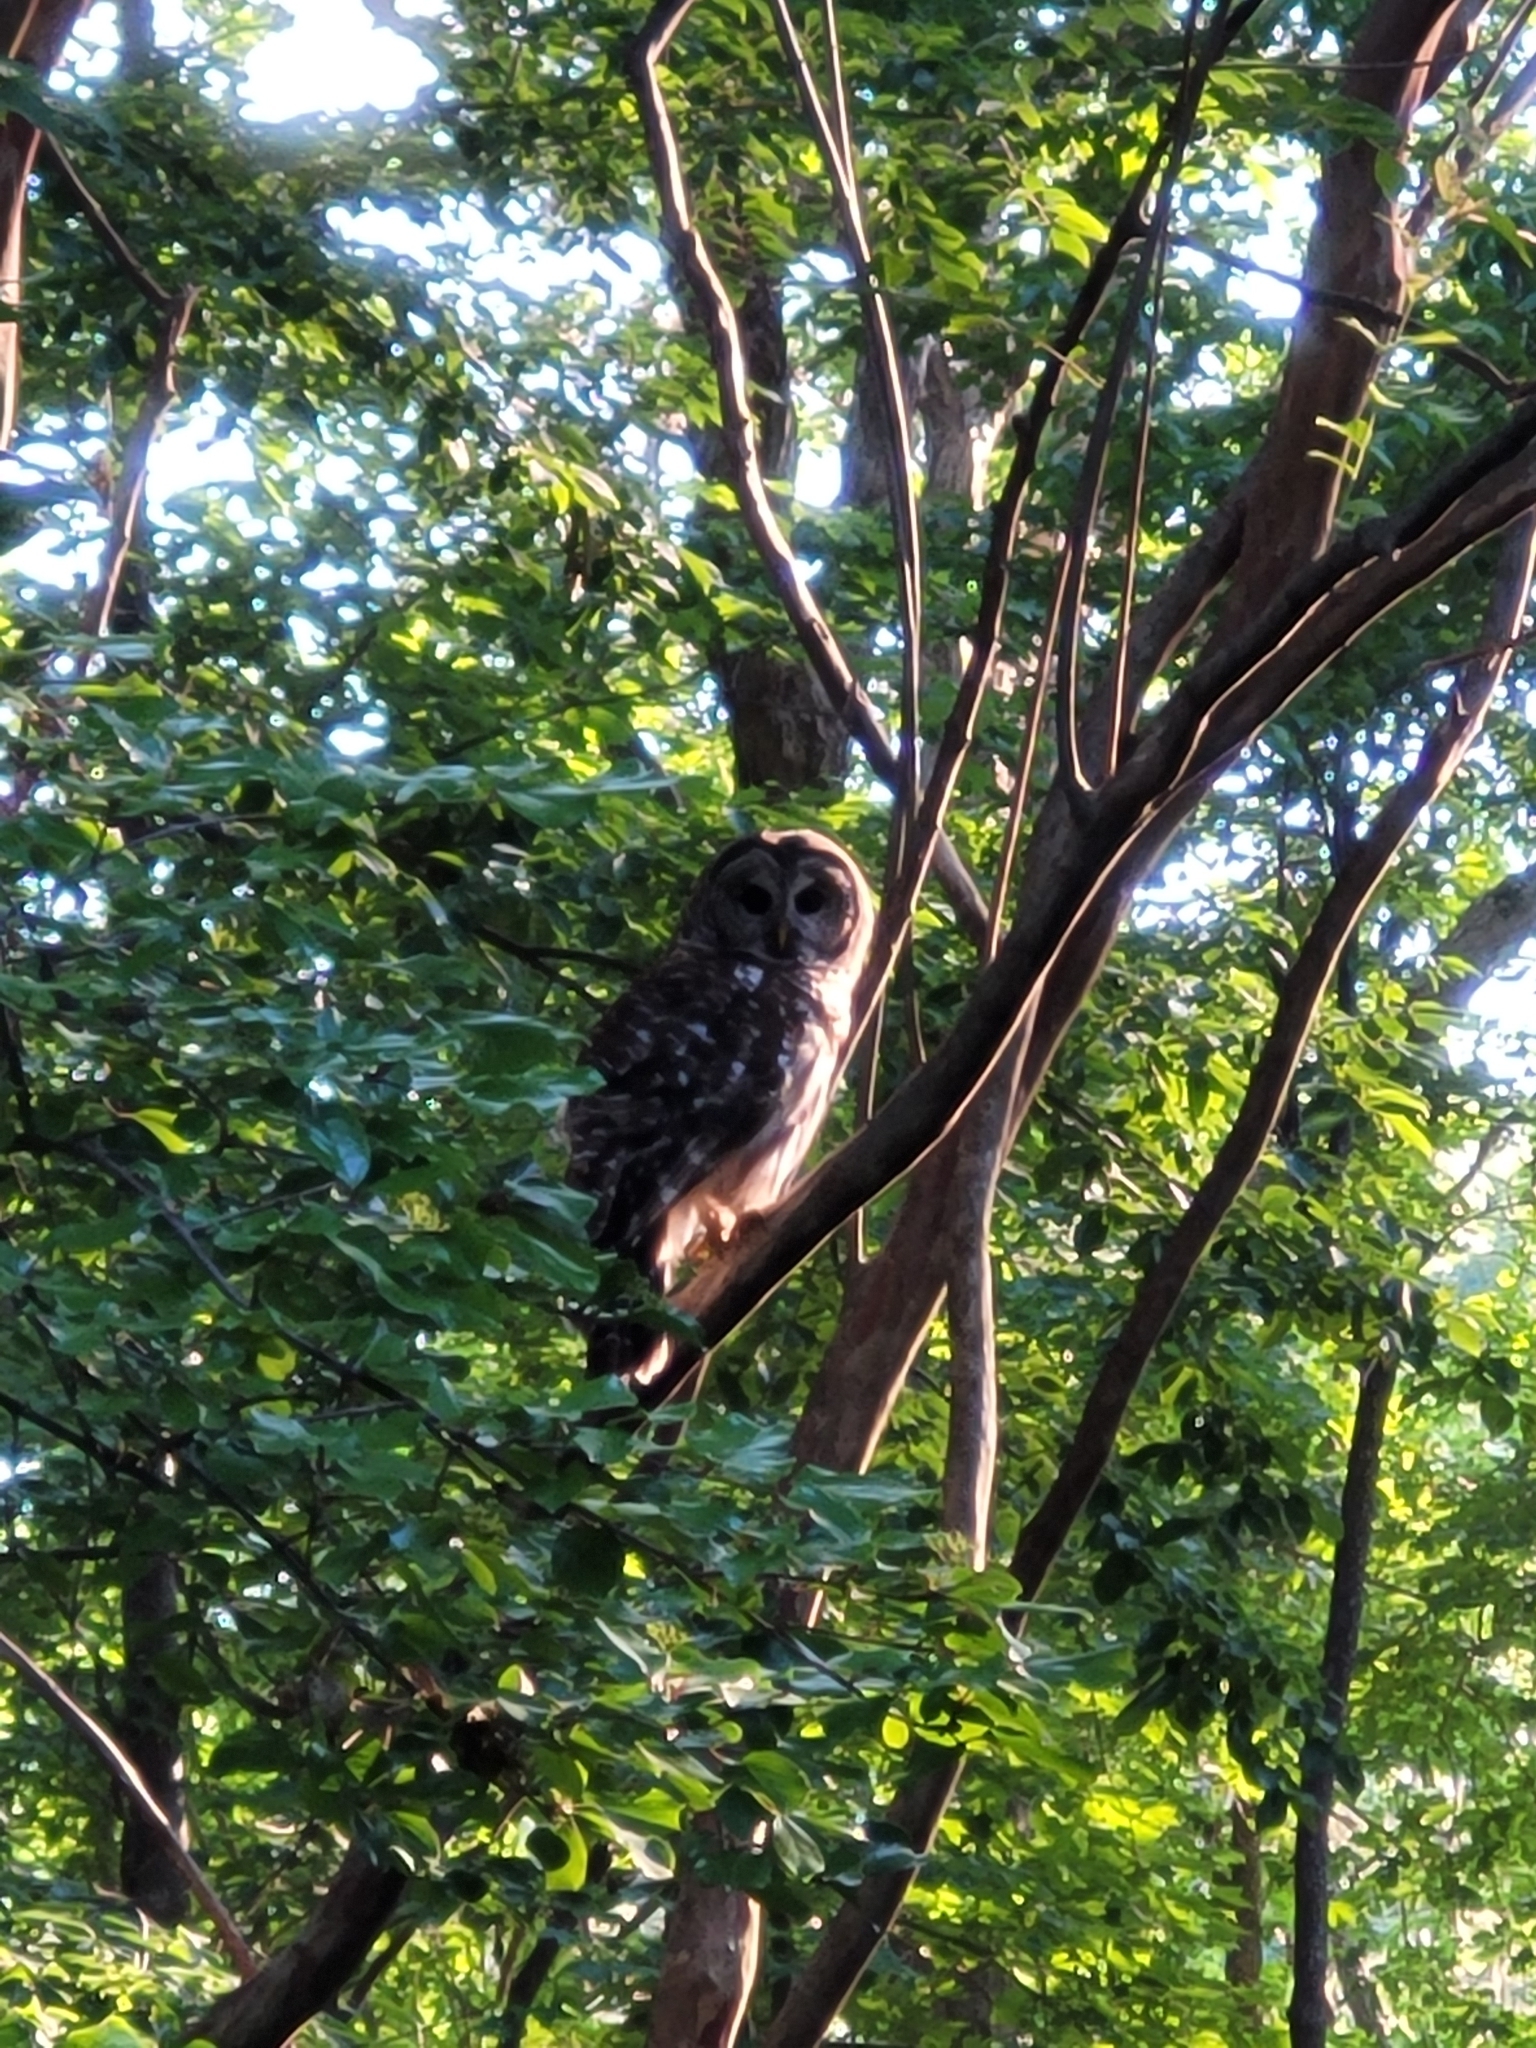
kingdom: Animalia
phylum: Chordata
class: Aves
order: Strigiformes
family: Strigidae
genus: Strix
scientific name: Strix varia
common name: Barred owl
